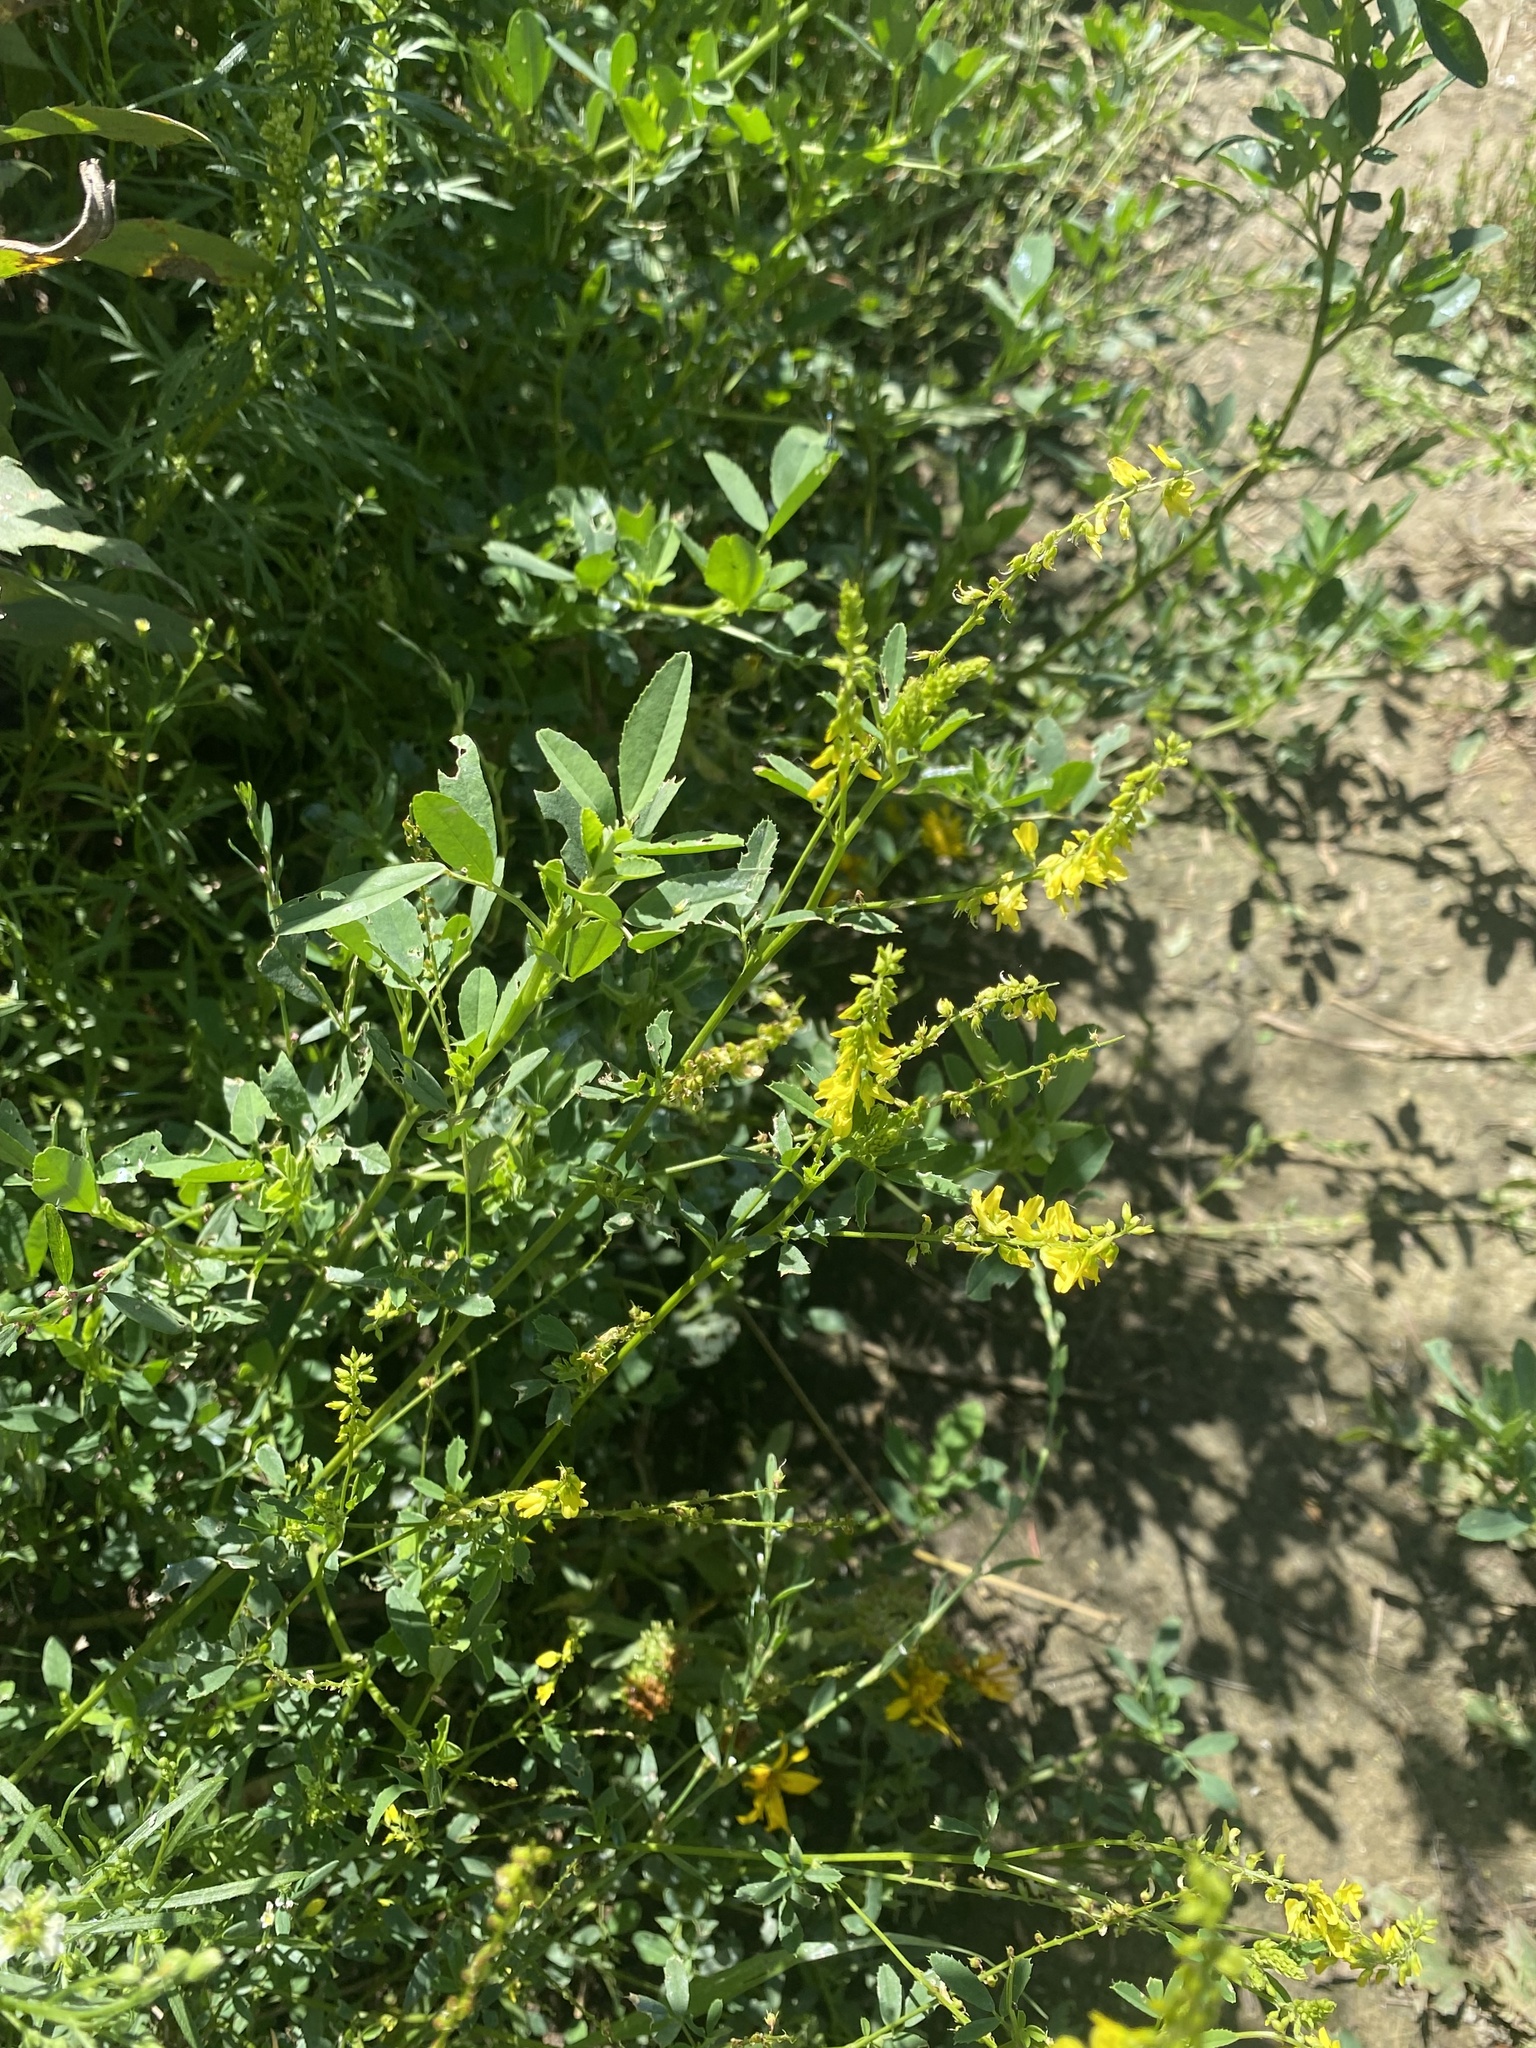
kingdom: Plantae
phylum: Tracheophyta
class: Magnoliopsida
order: Fabales
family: Fabaceae
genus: Melilotus
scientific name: Melilotus officinalis
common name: Sweetclover
